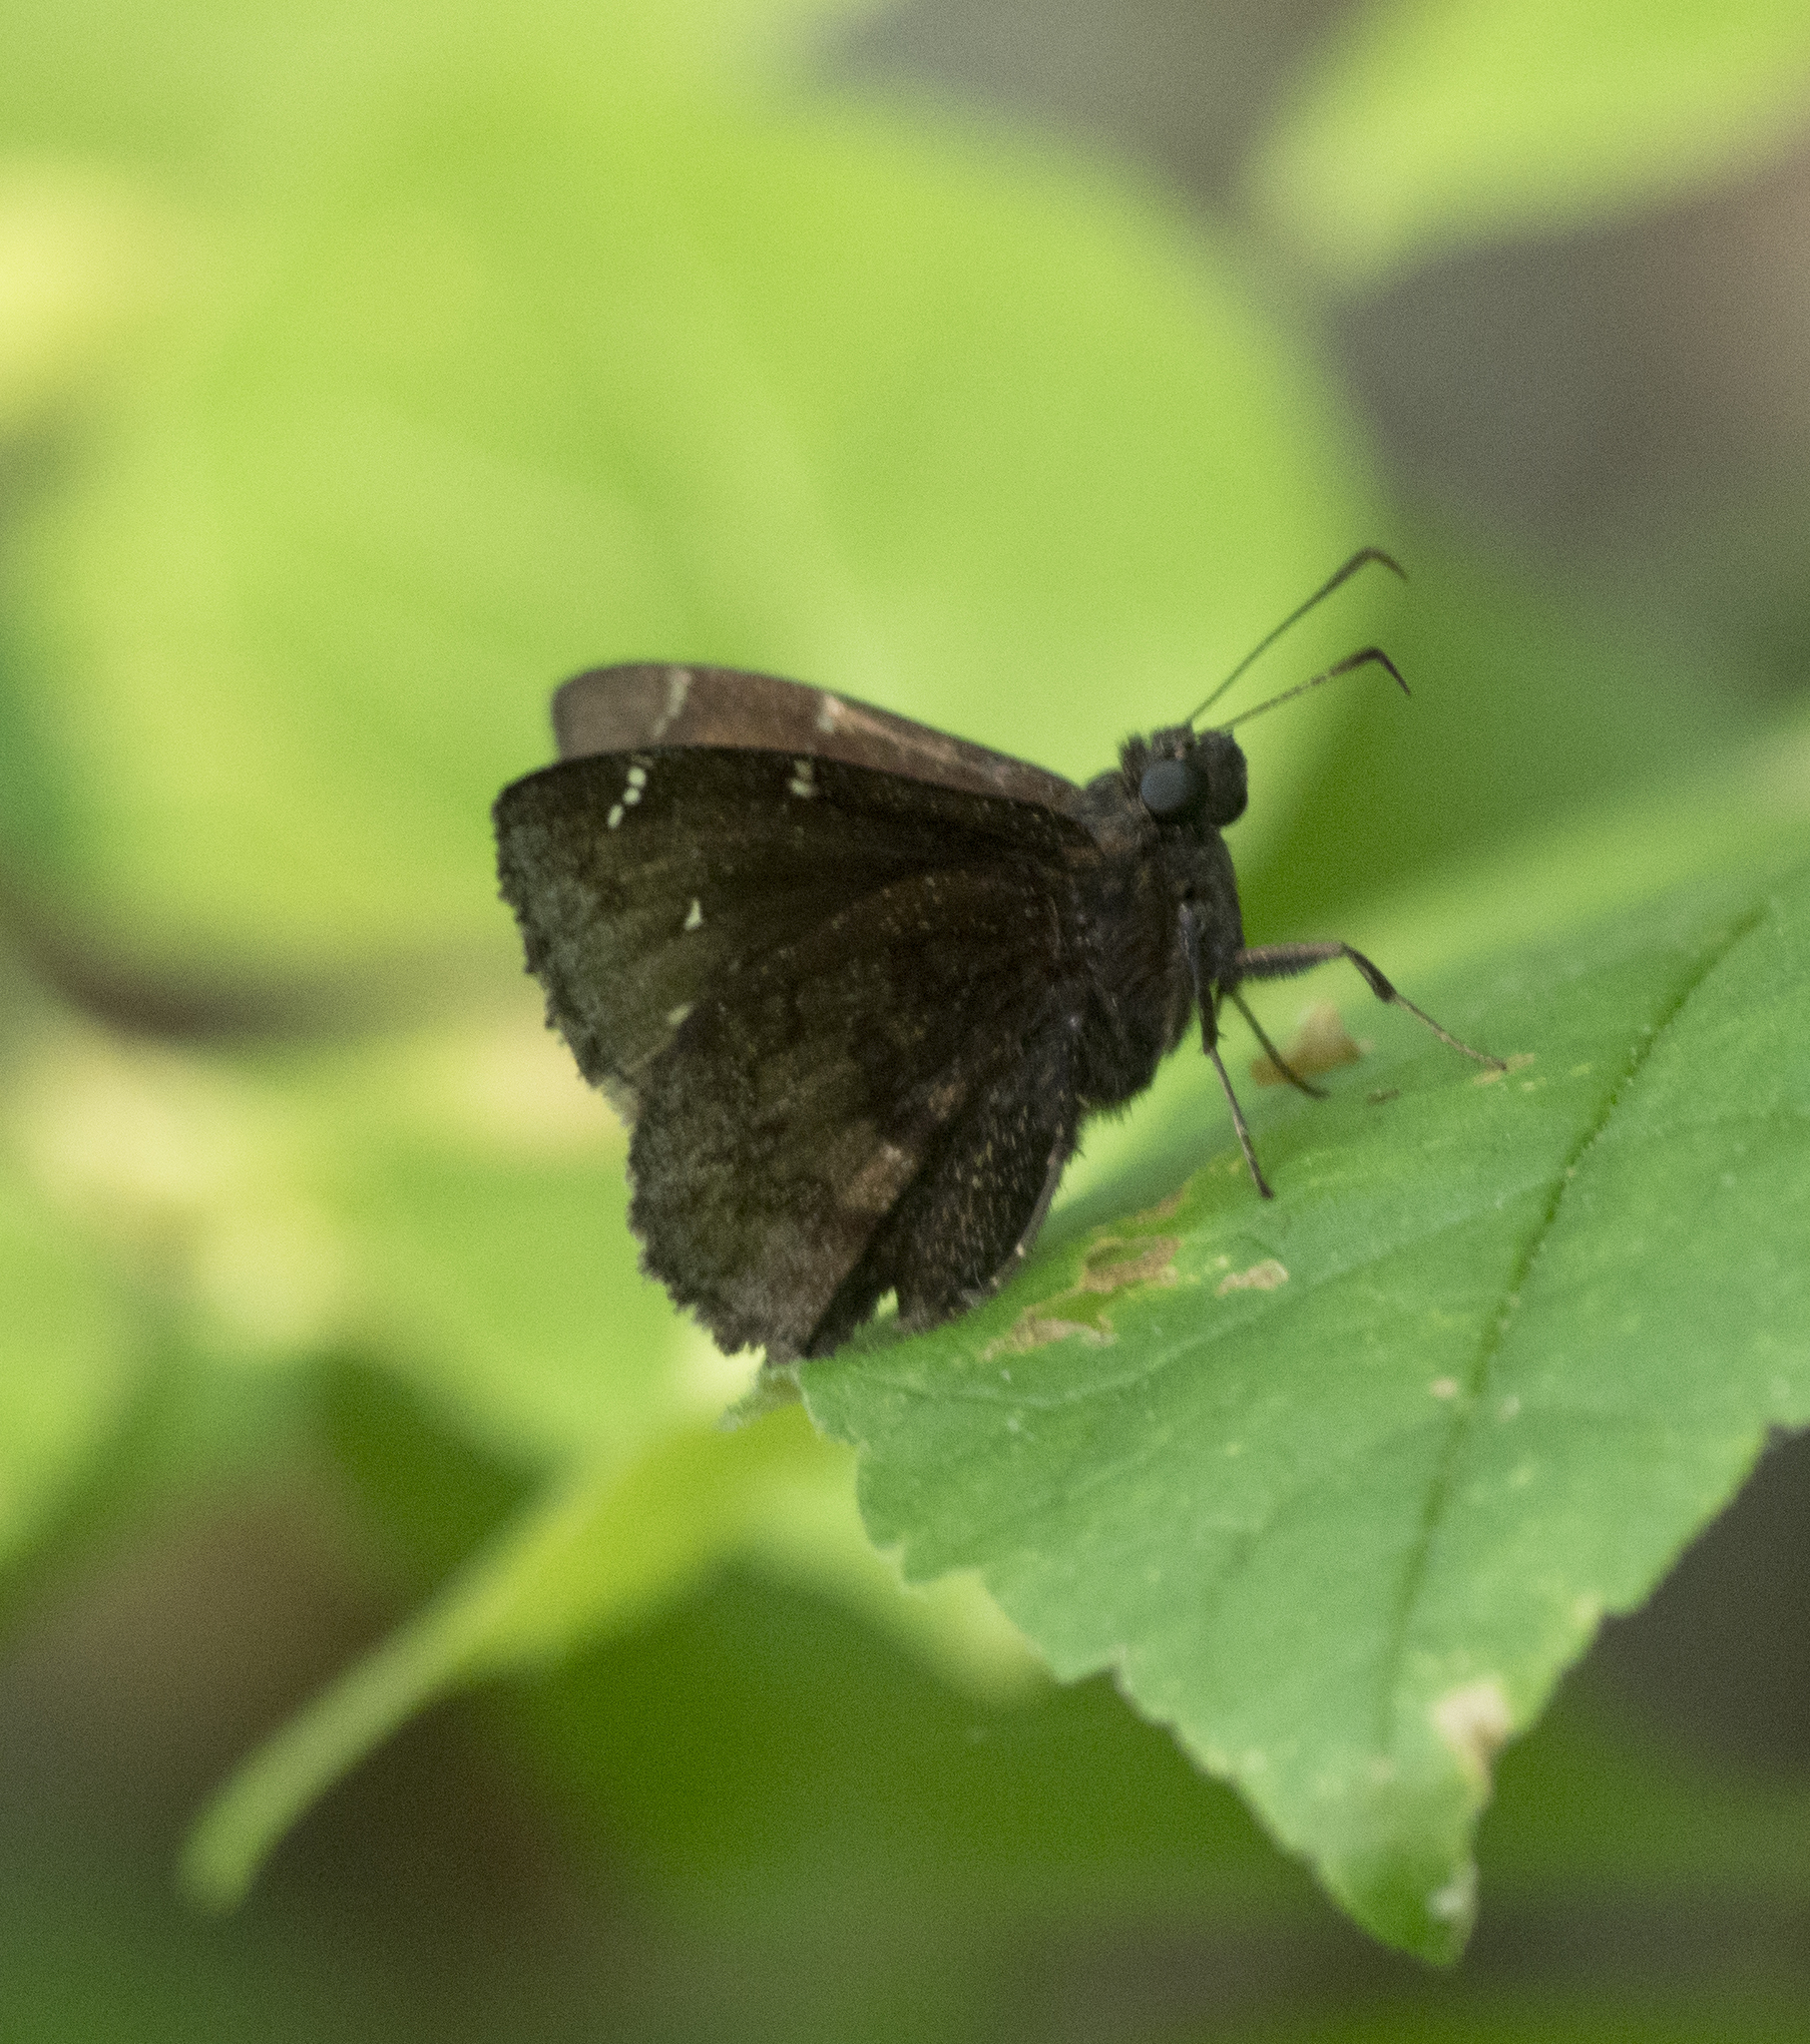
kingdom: Animalia
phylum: Arthropoda
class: Insecta
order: Lepidoptera
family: Hesperiidae
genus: Thorybes
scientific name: Thorybes pylades
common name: Northern cloudywing
